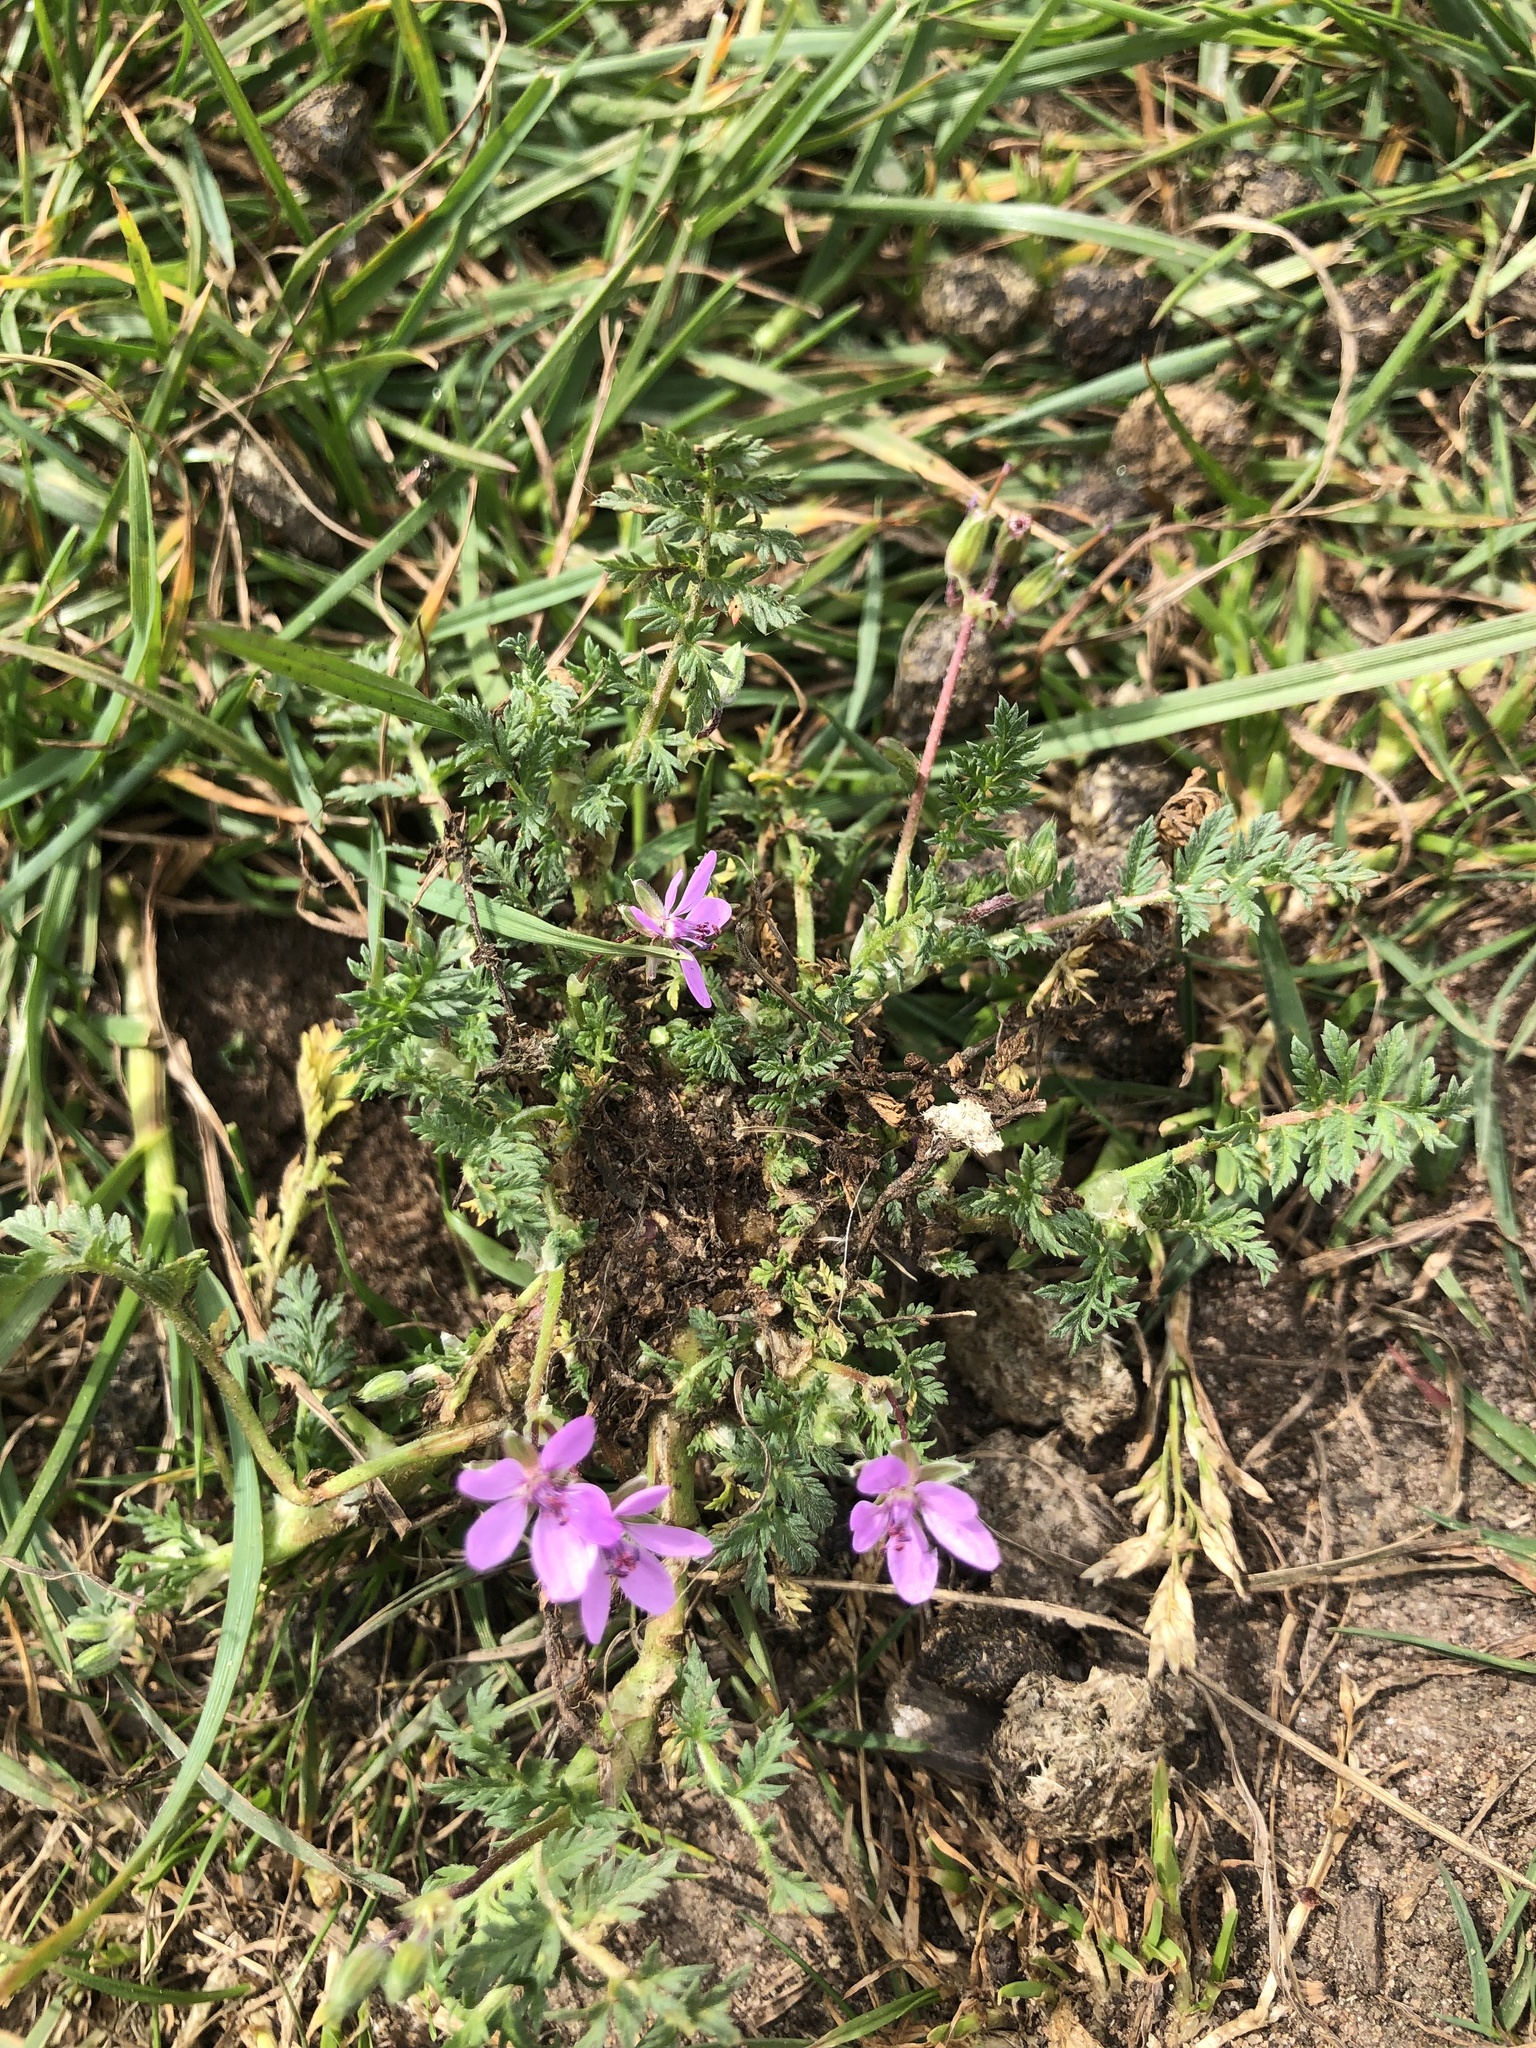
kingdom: Plantae
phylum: Tracheophyta
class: Magnoliopsida
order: Geraniales
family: Geraniaceae
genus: Erodium
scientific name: Erodium cicutarium
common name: Common stork's-bill
